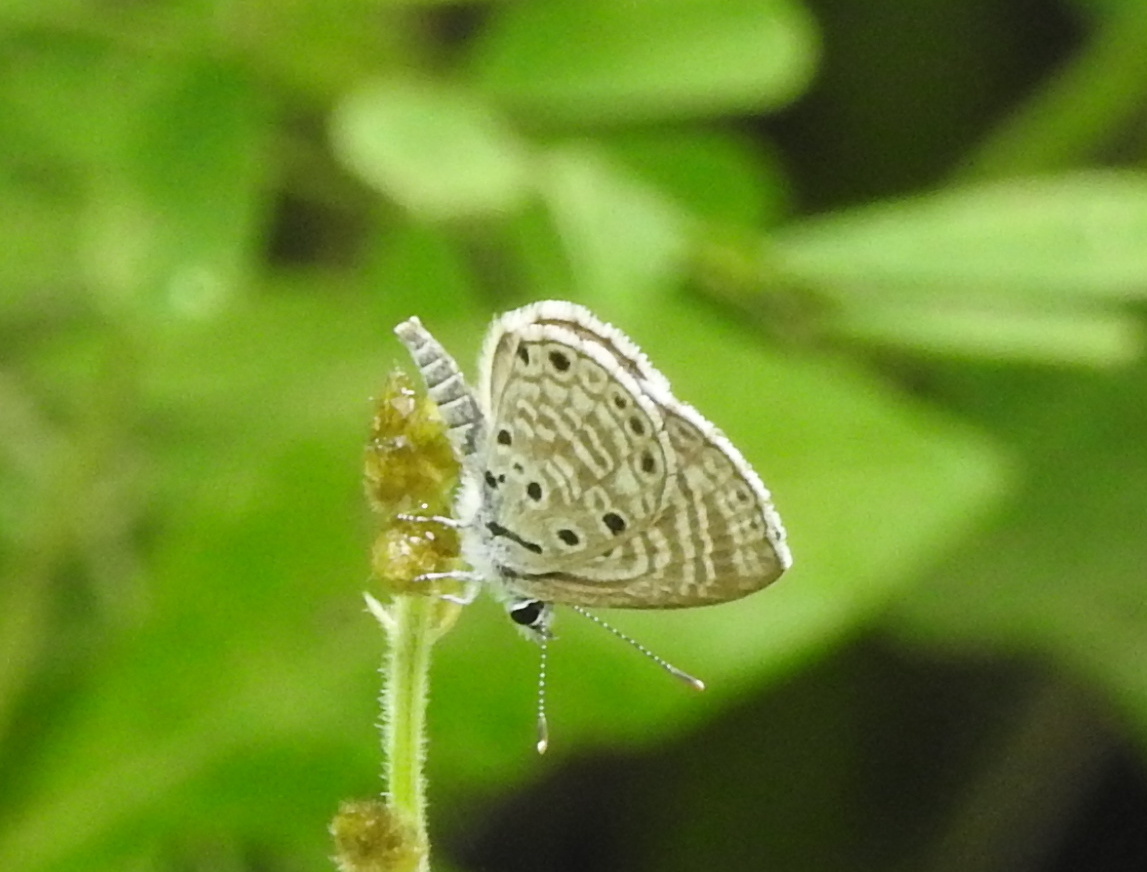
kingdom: Animalia
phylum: Arthropoda
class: Insecta
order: Lepidoptera
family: Lycaenidae
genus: Azanus
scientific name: Azanus jesous
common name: African babul blue
